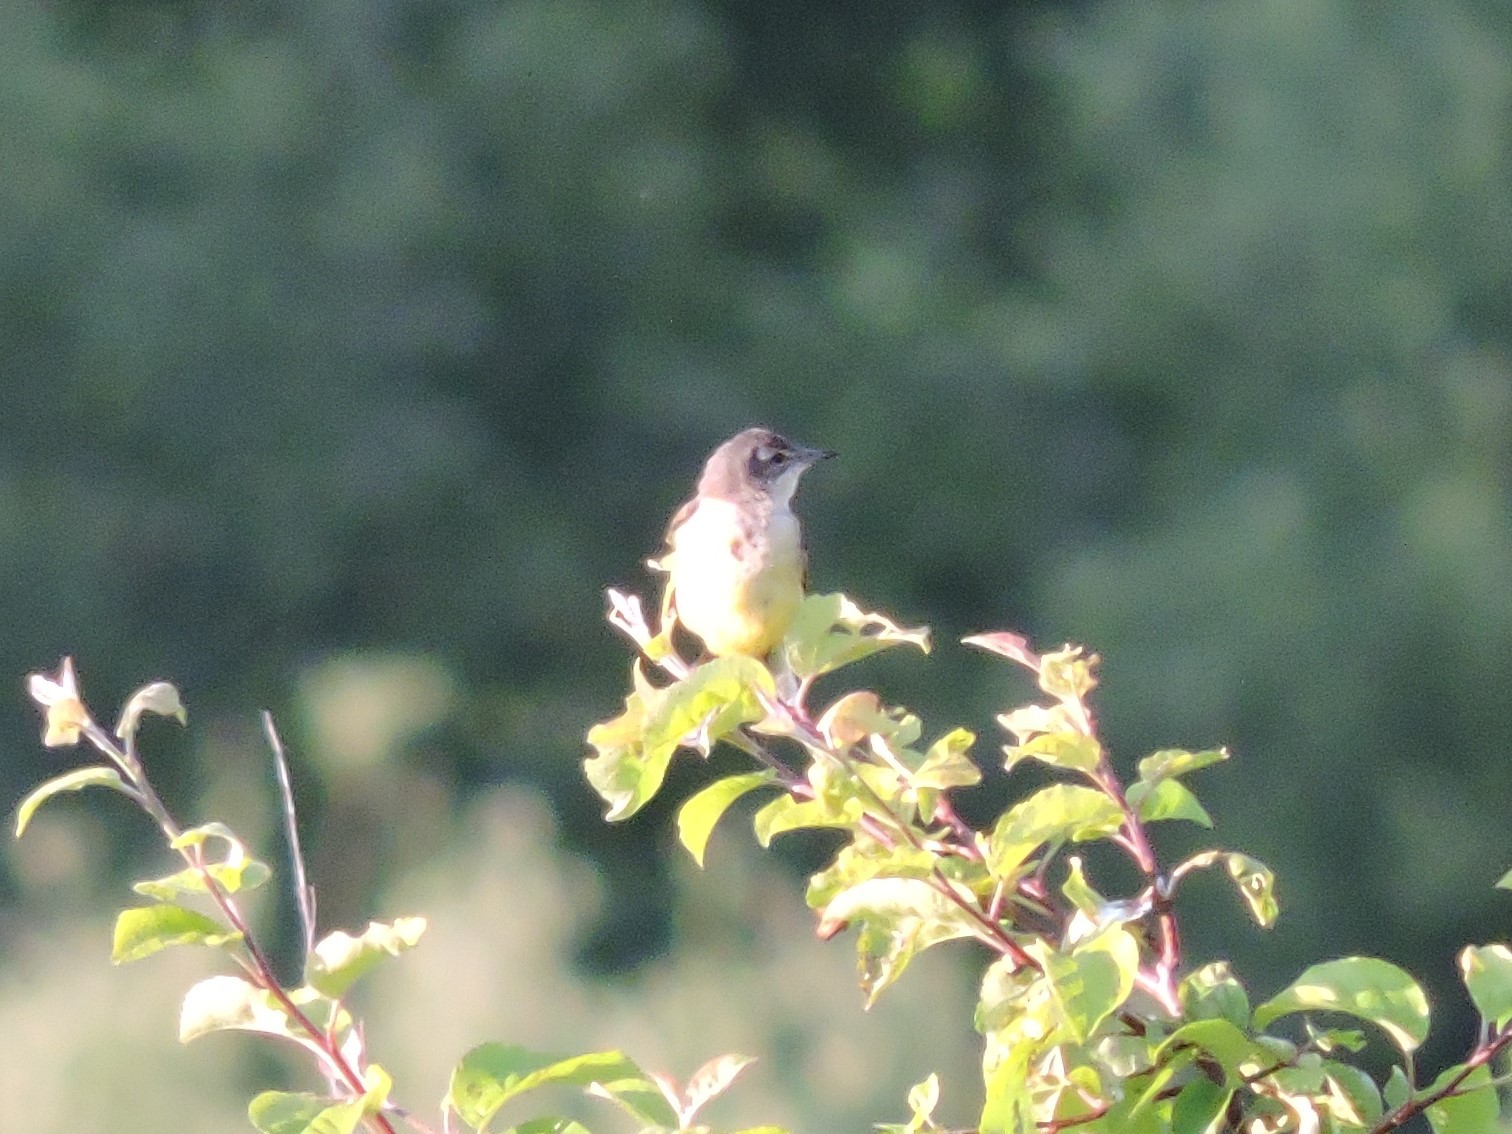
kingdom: Animalia
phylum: Chordata
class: Aves
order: Passeriformes
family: Motacillidae
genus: Motacilla
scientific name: Motacilla flava
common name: Western yellow wagtail
